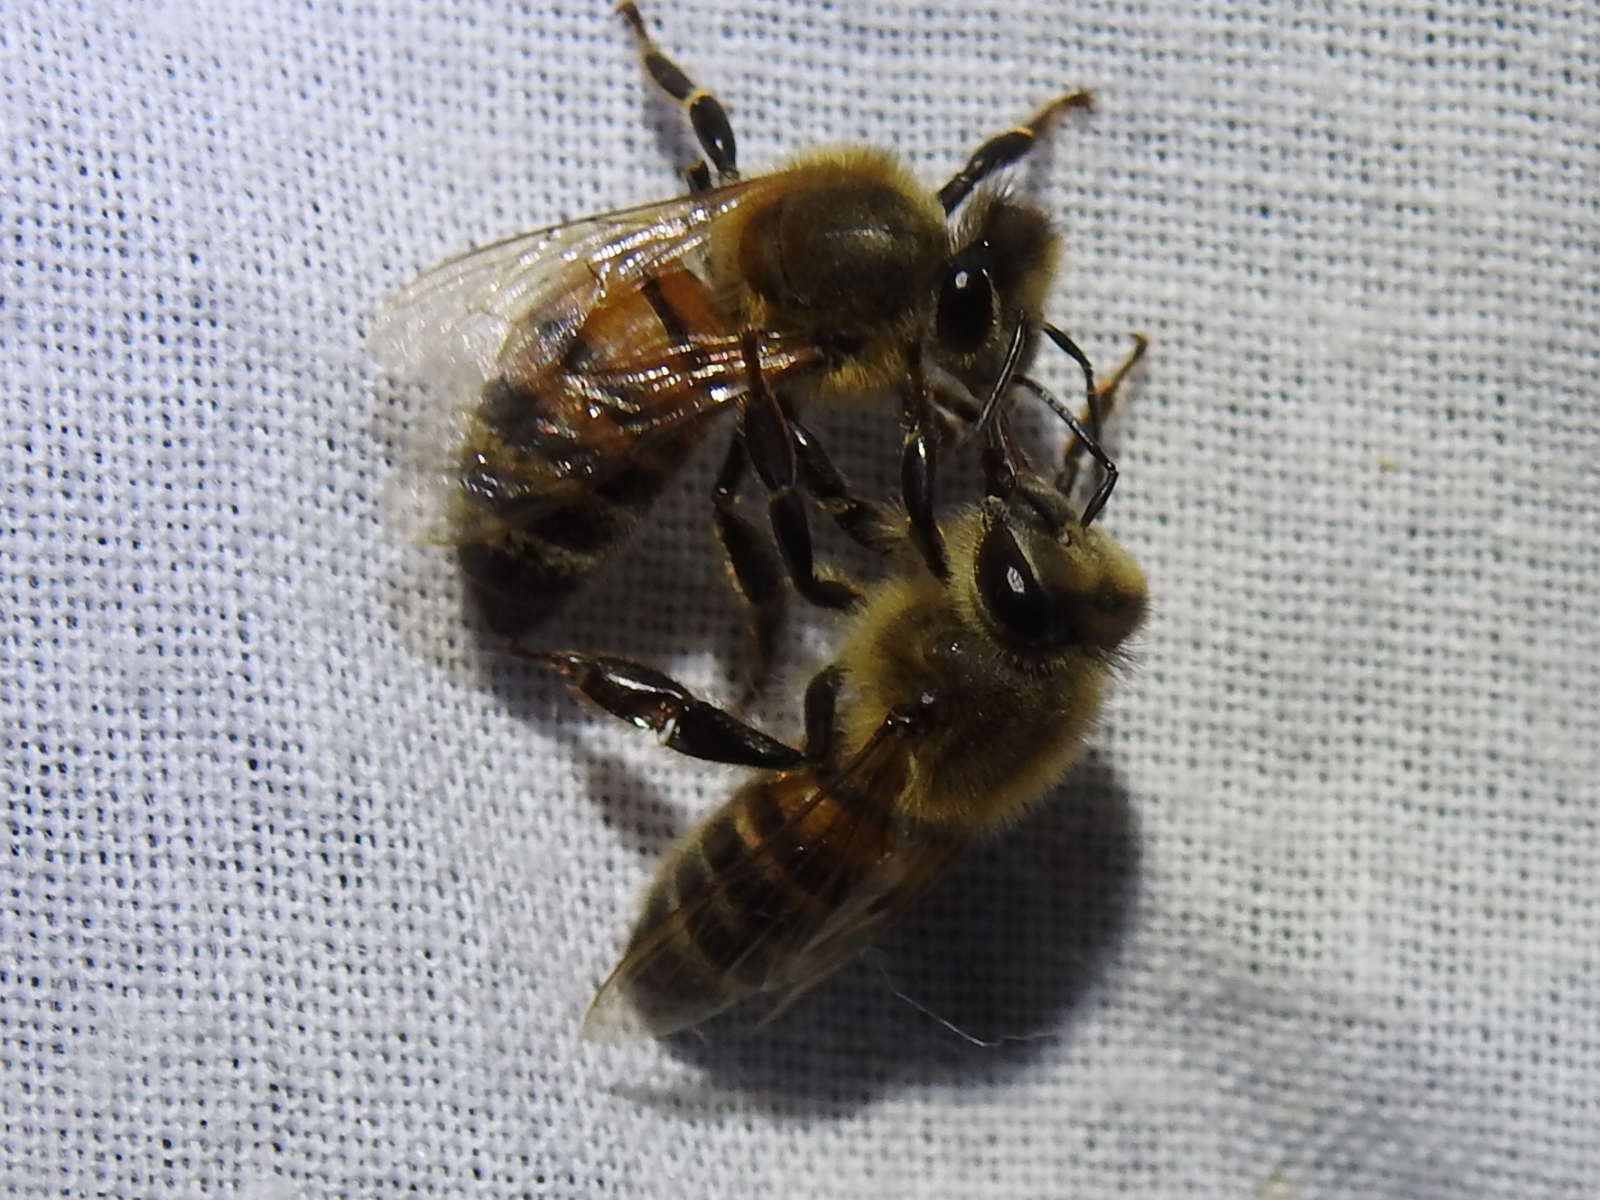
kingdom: Animalia
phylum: Arthropoda
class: Insecta
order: Hymenoptera
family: Apidae
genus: Apis
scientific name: Apis mellifera
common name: Honey bee
